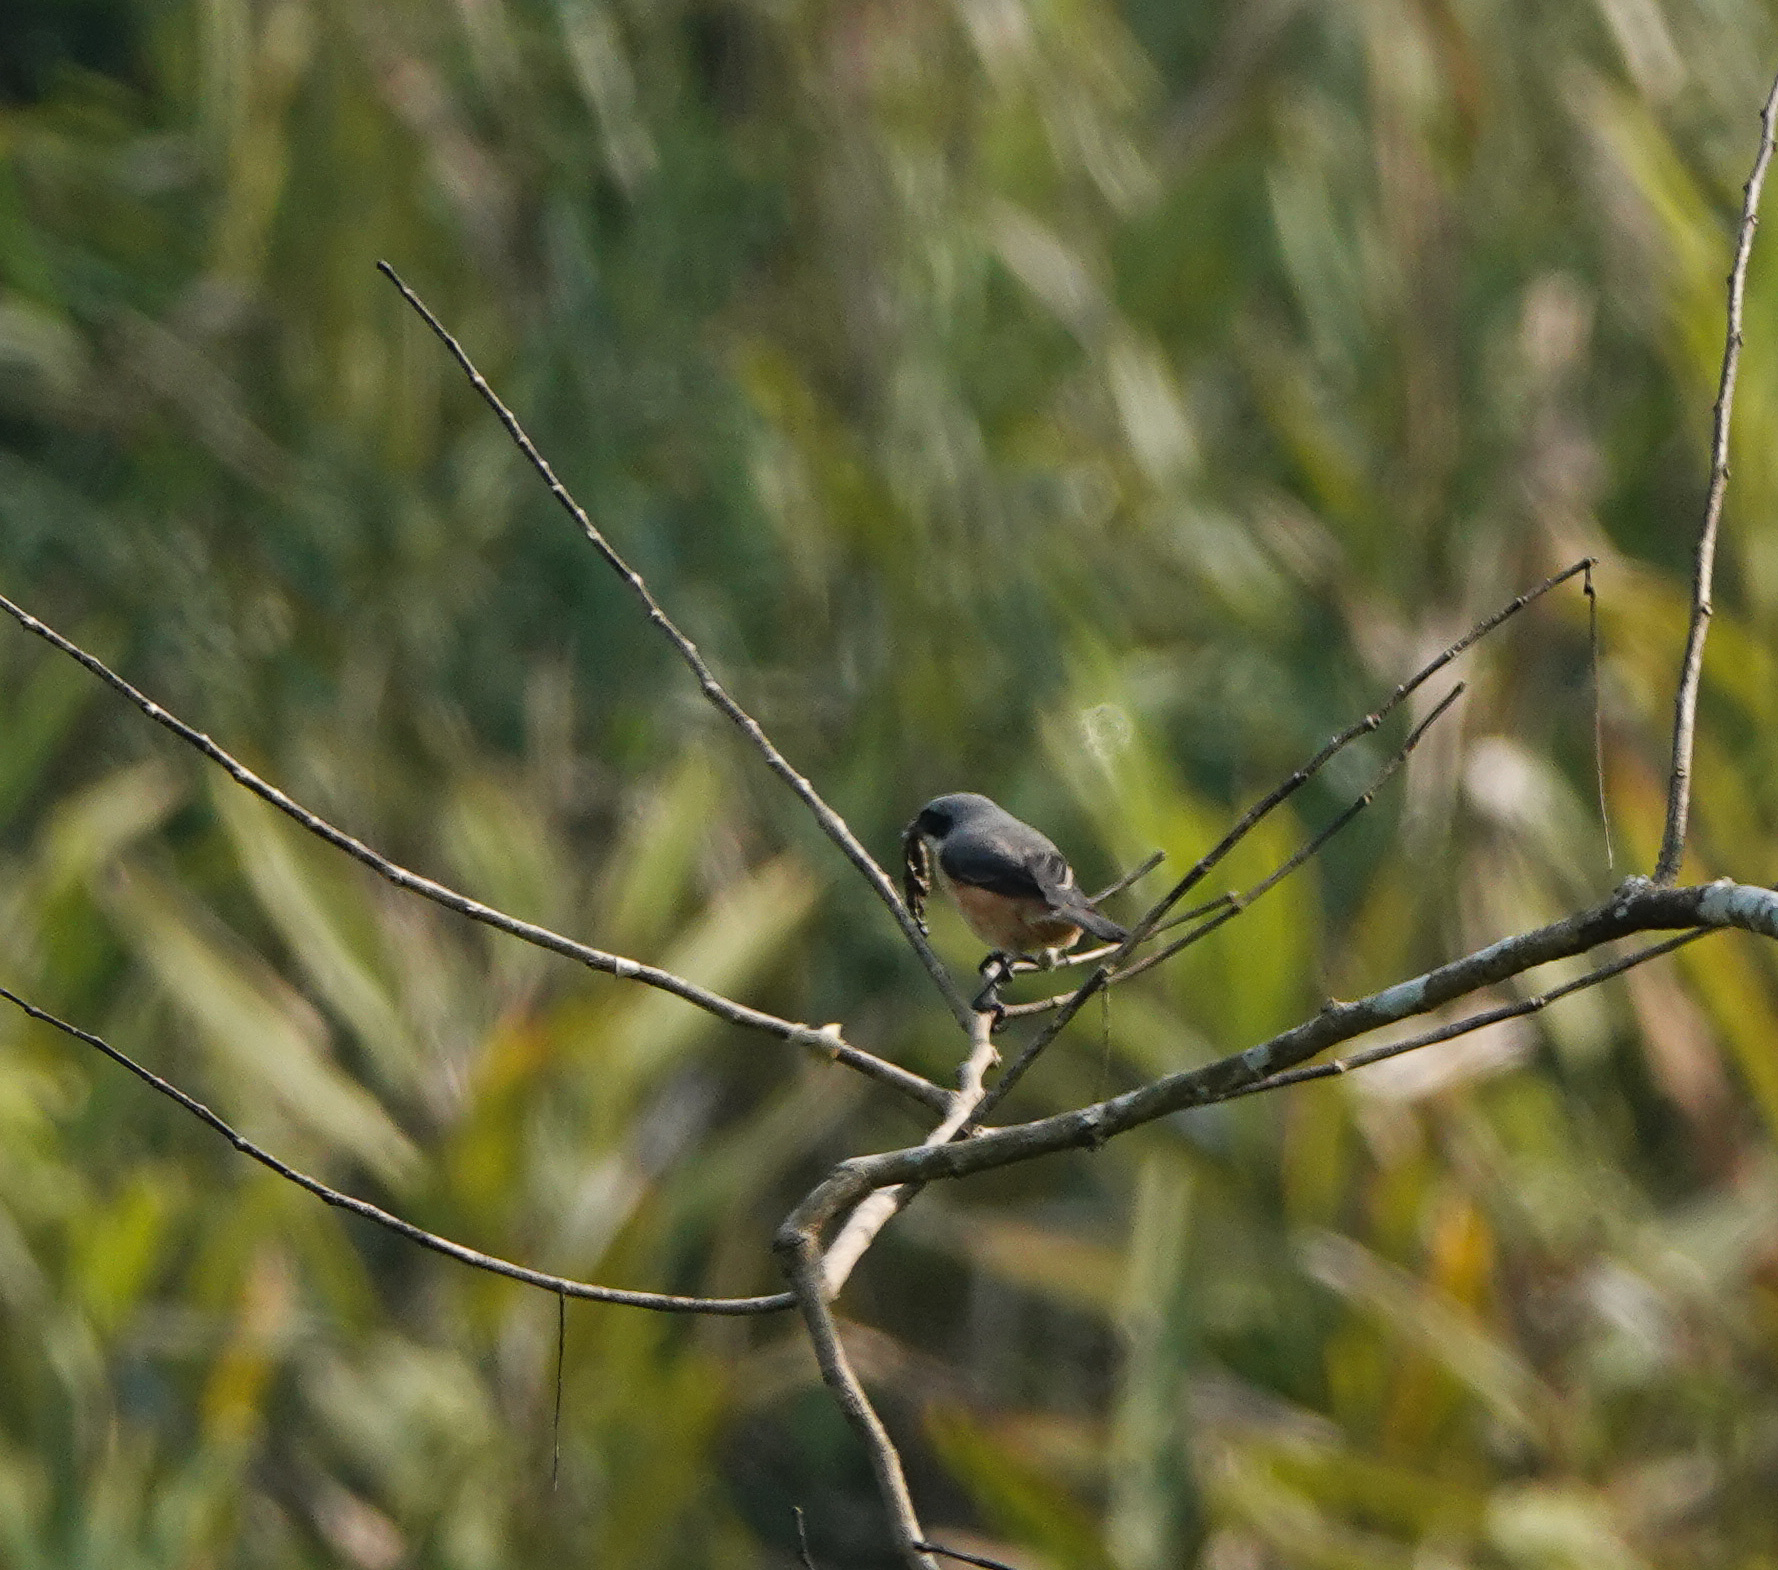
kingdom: Animalia
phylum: Chordata
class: Aves
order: Passeriformes
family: Laniidae
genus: Lanius
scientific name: Lanius tephronotus
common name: Grey-backed shrike
